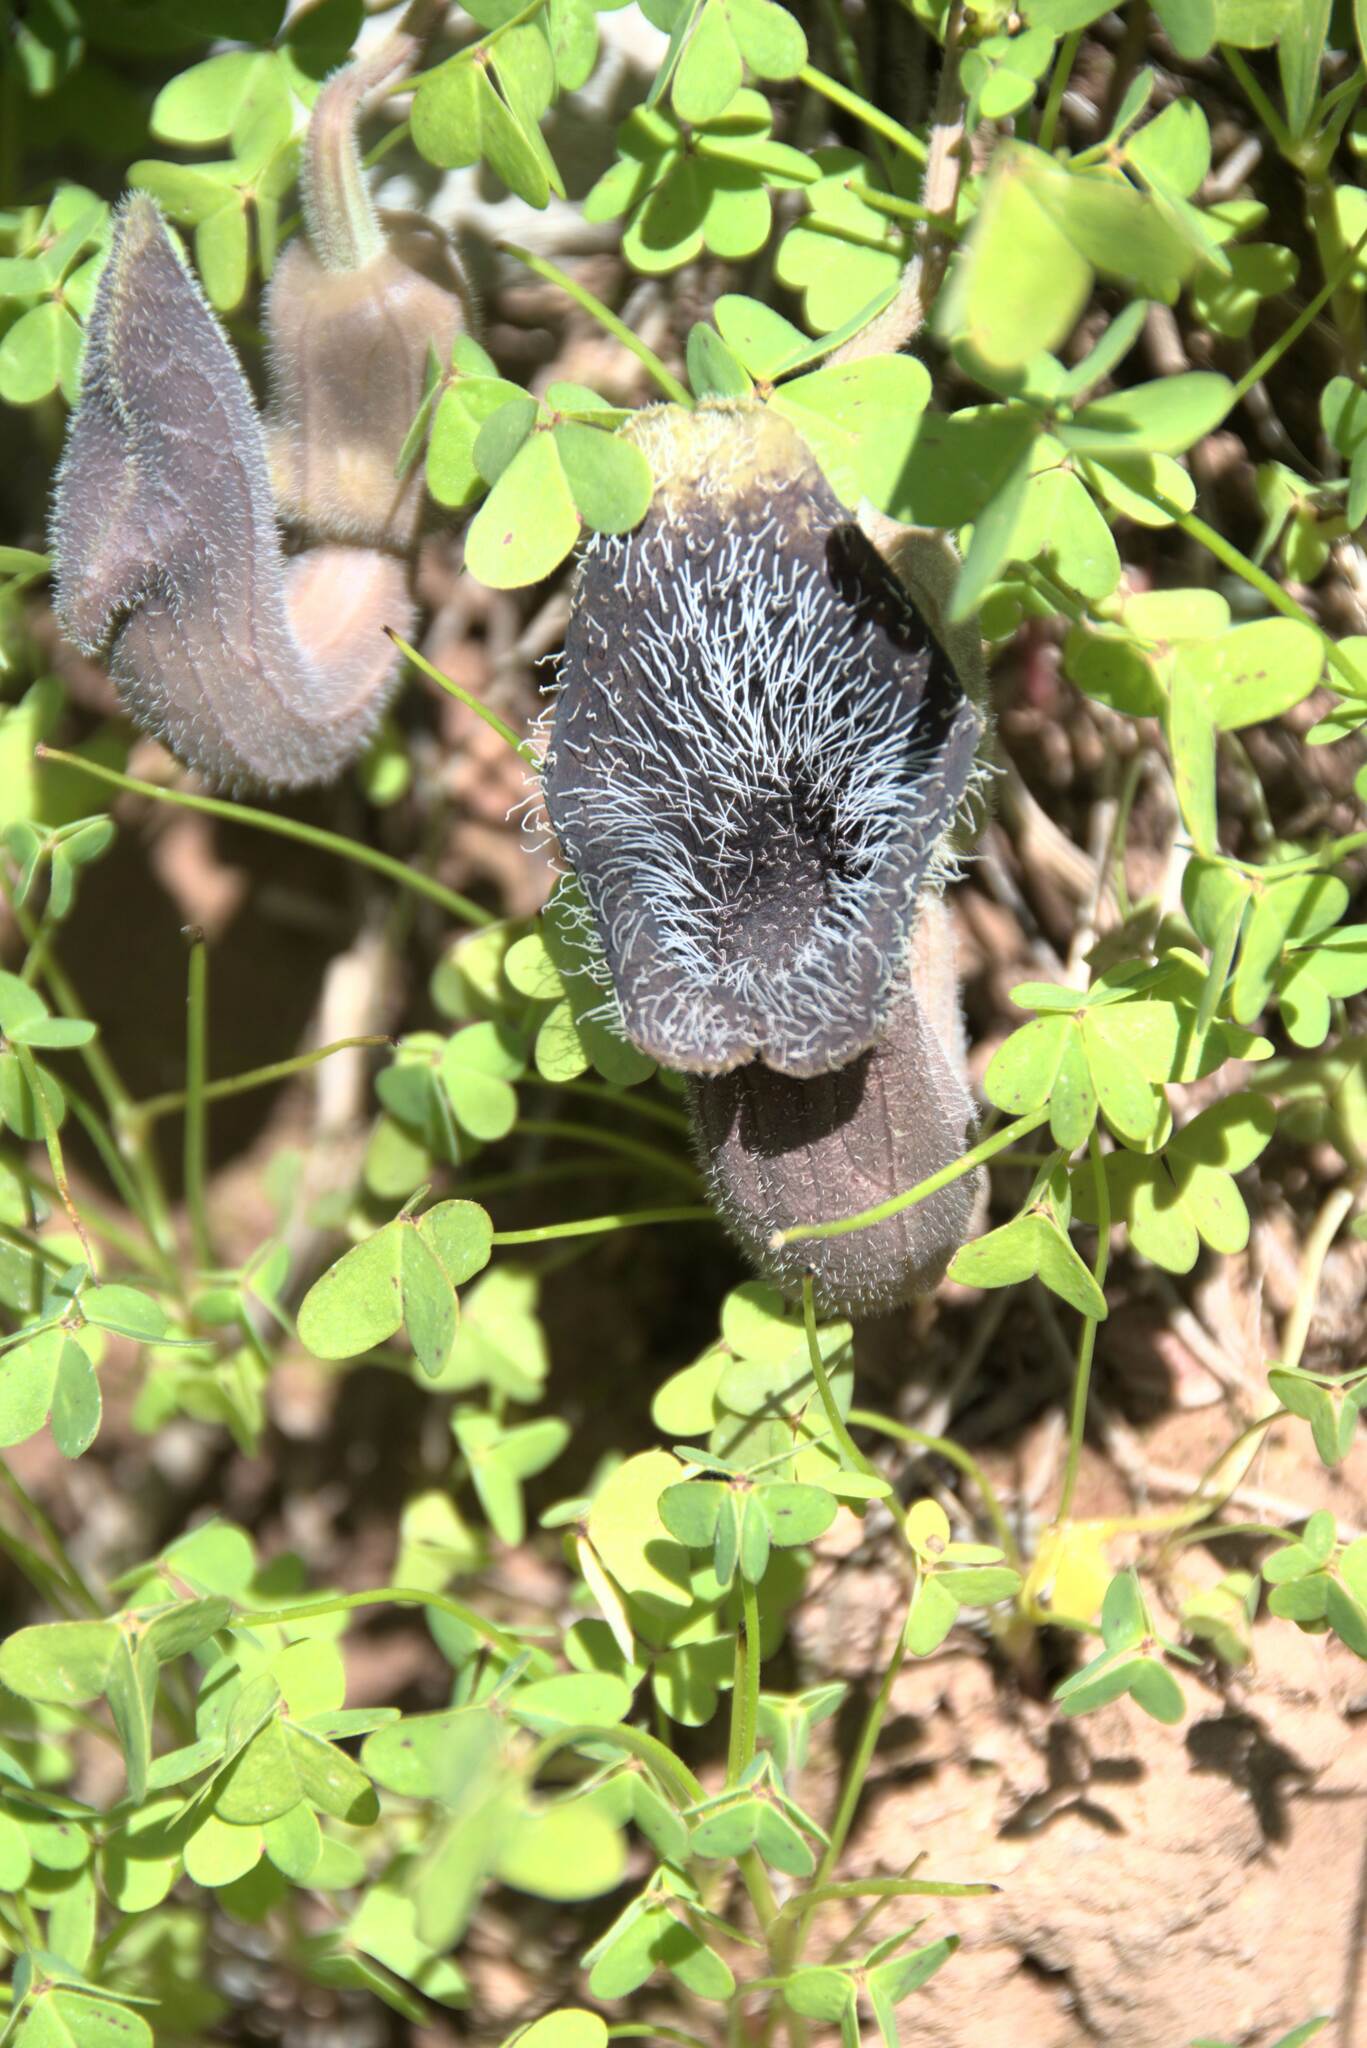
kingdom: Plantae
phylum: Tracheophyta
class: Magnoliopsida
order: Piperales
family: Aristolochiaceae
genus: Aristolochia
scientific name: Aristolochia cretica
